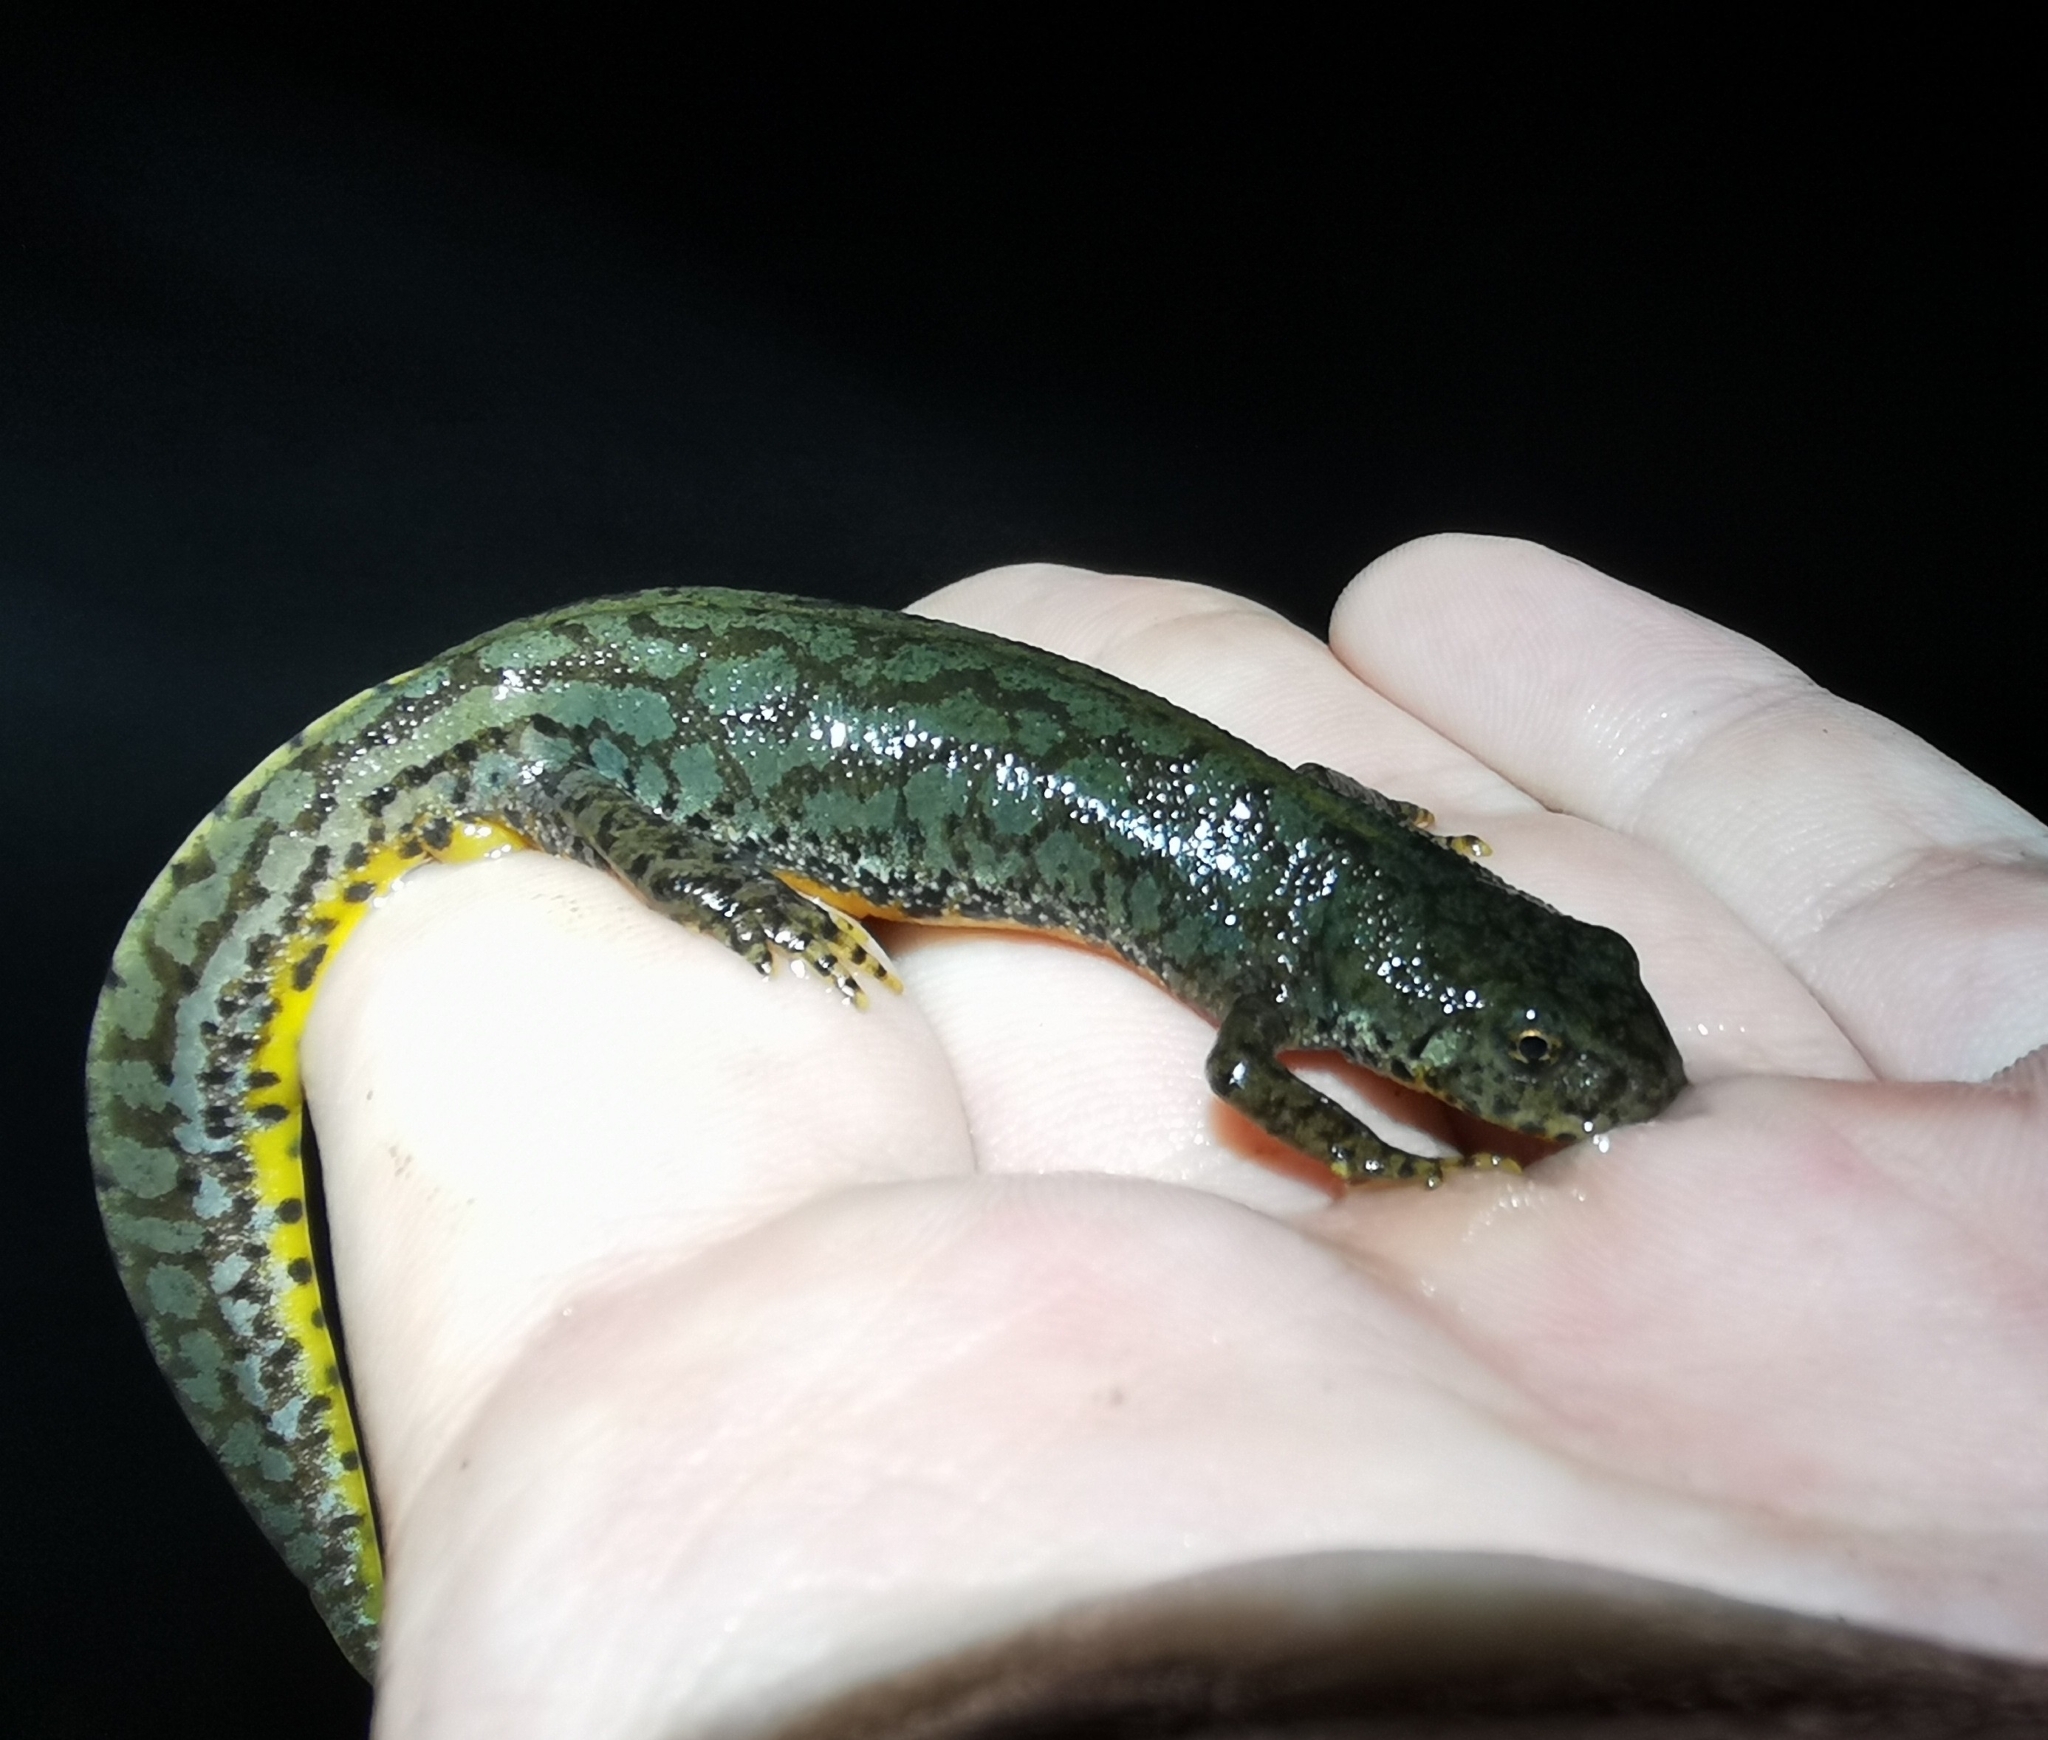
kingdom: Animalia
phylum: Chordata
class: Amphibia
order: Caudata
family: Salamandridae
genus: Ichthyosaura
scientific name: Ichthyosaura alpestris
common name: Alpine newt
